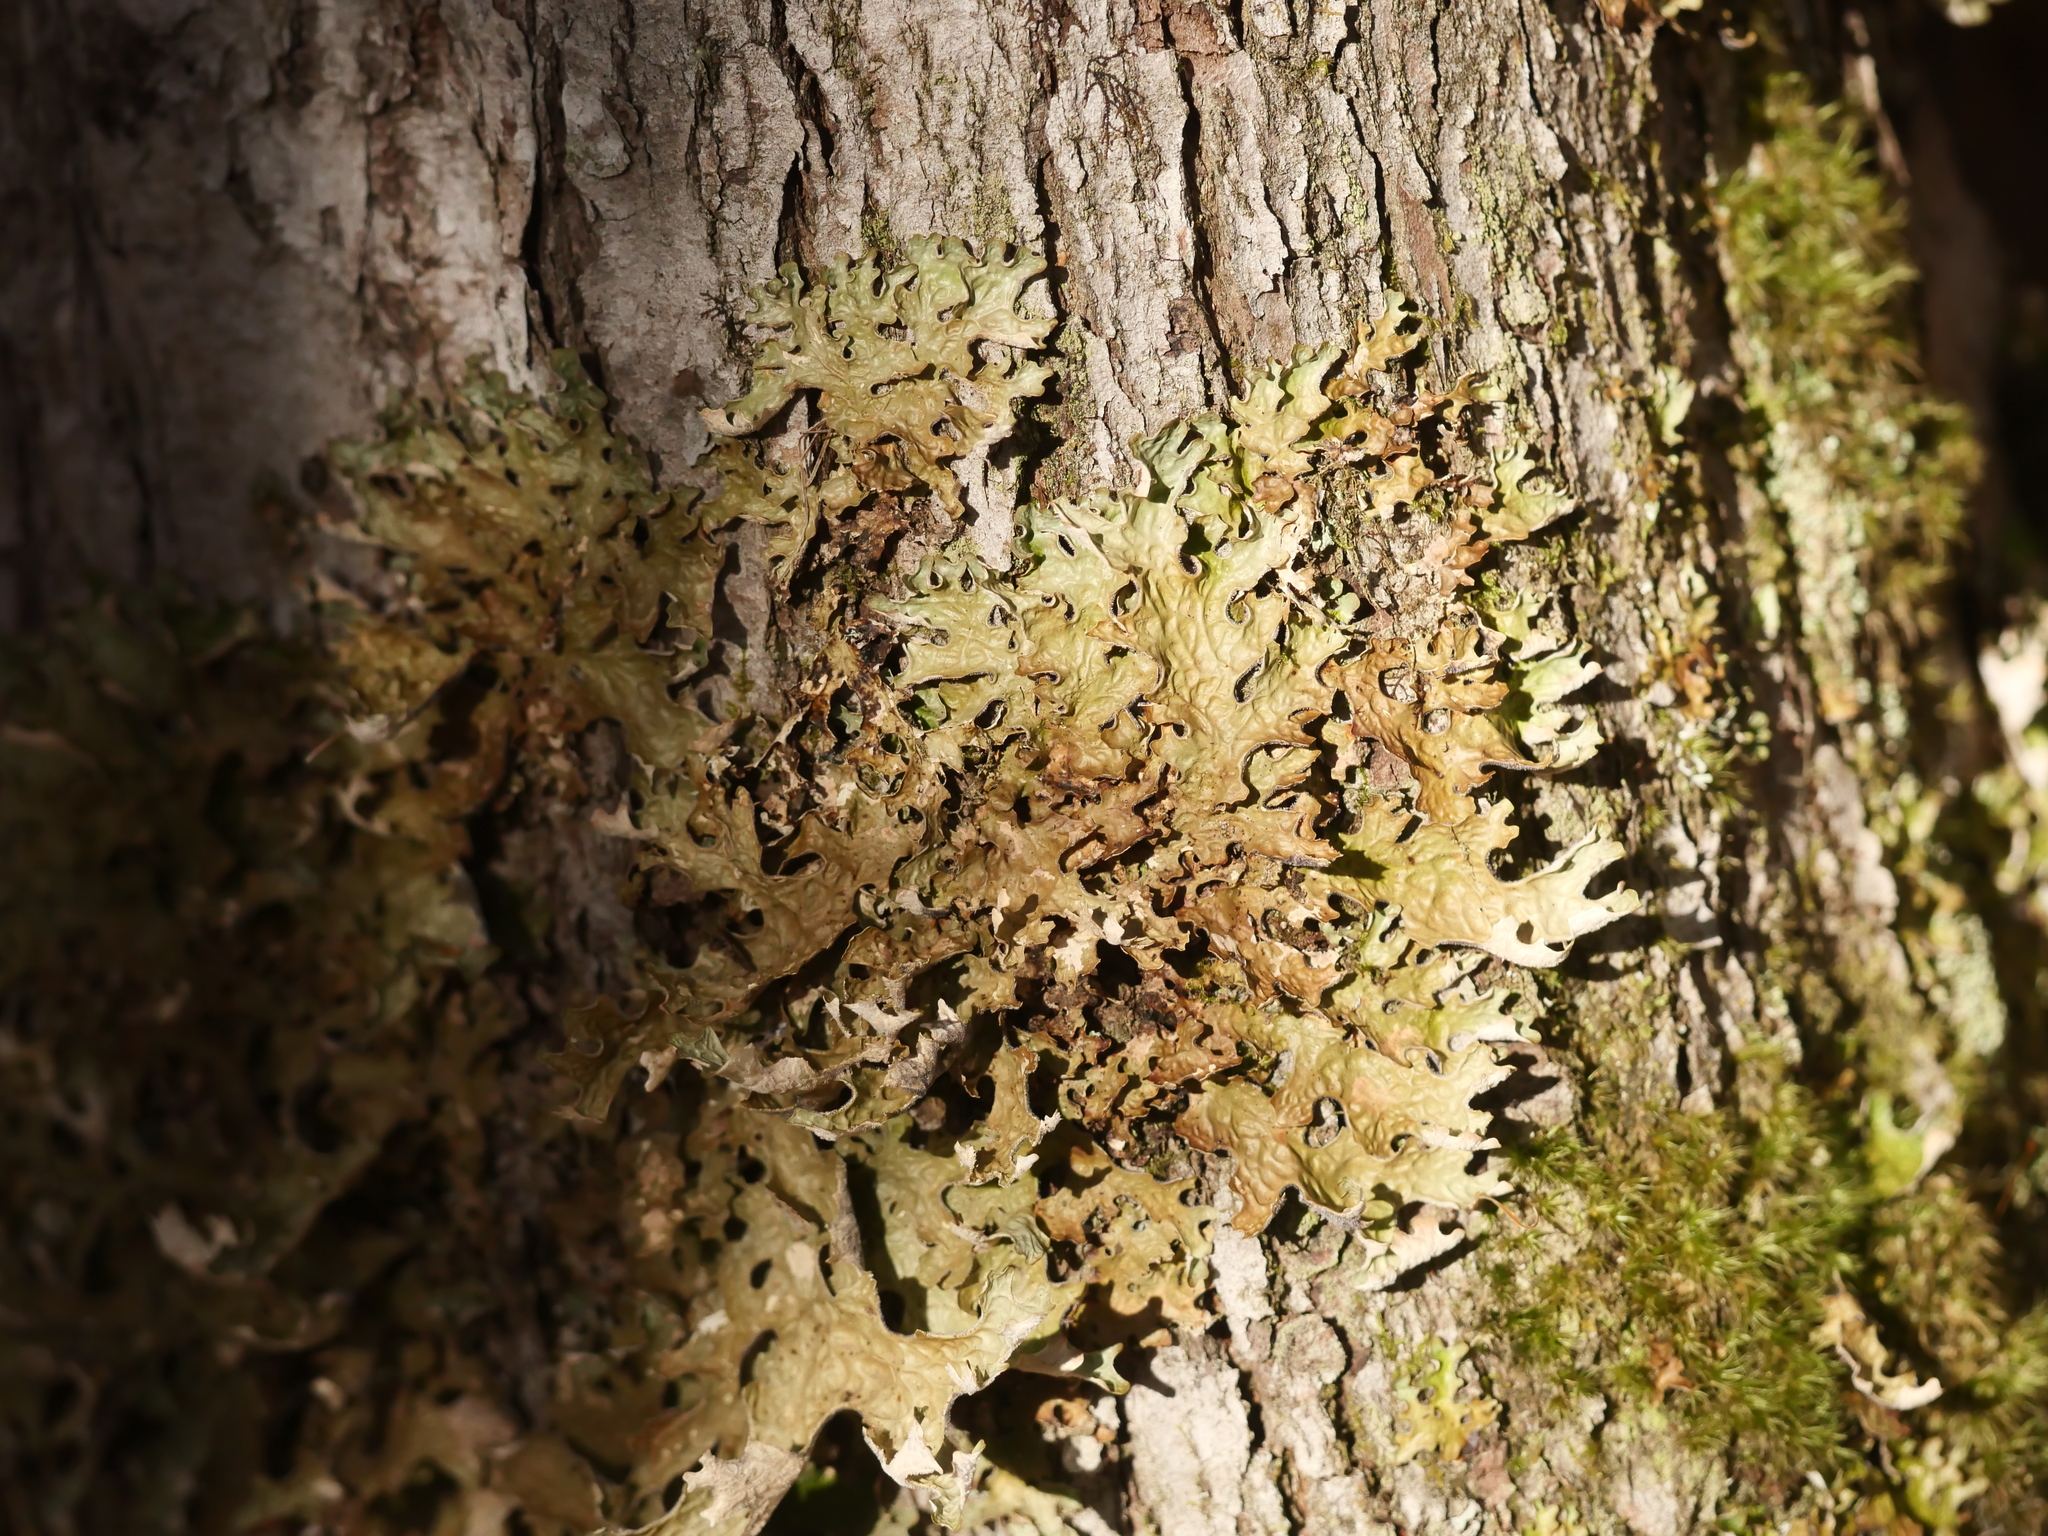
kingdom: Fungi
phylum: Ascomycota
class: Lecanoromycetes
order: Peltigerales
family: Lobariaceae
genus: Lobaria
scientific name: Lobaria pulmonaria
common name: Lungwort
